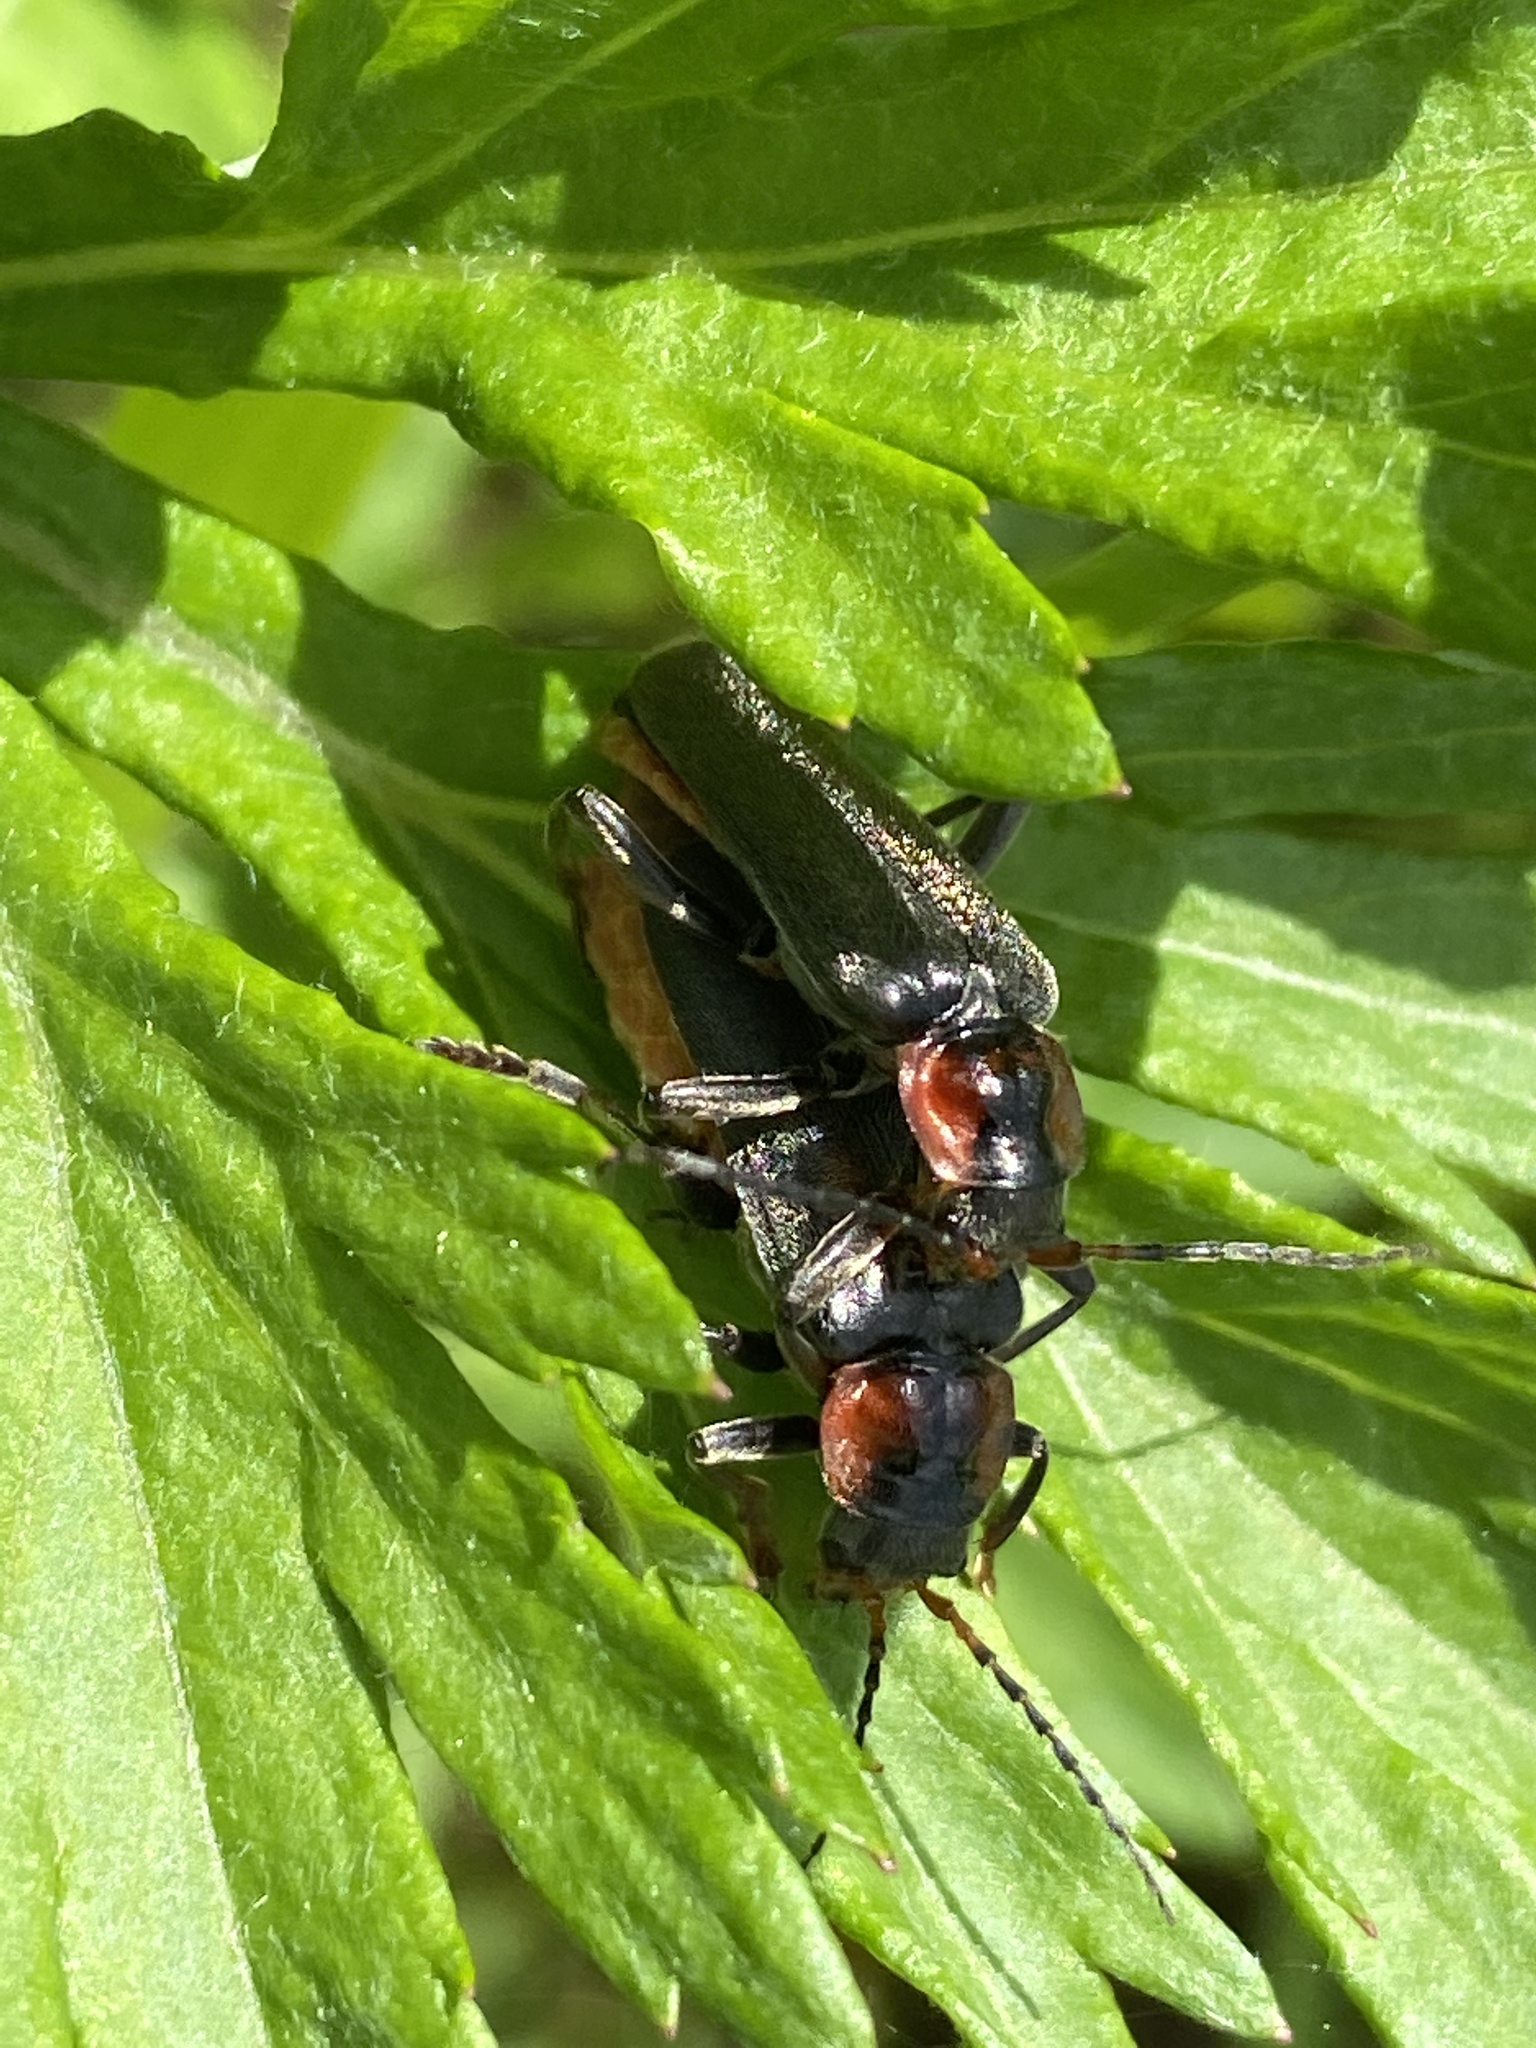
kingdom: Animalia
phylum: Arthropoda
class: Insecta
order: Coleoptera
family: Cantharidae
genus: Cantharis
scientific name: Cantharis fusca
